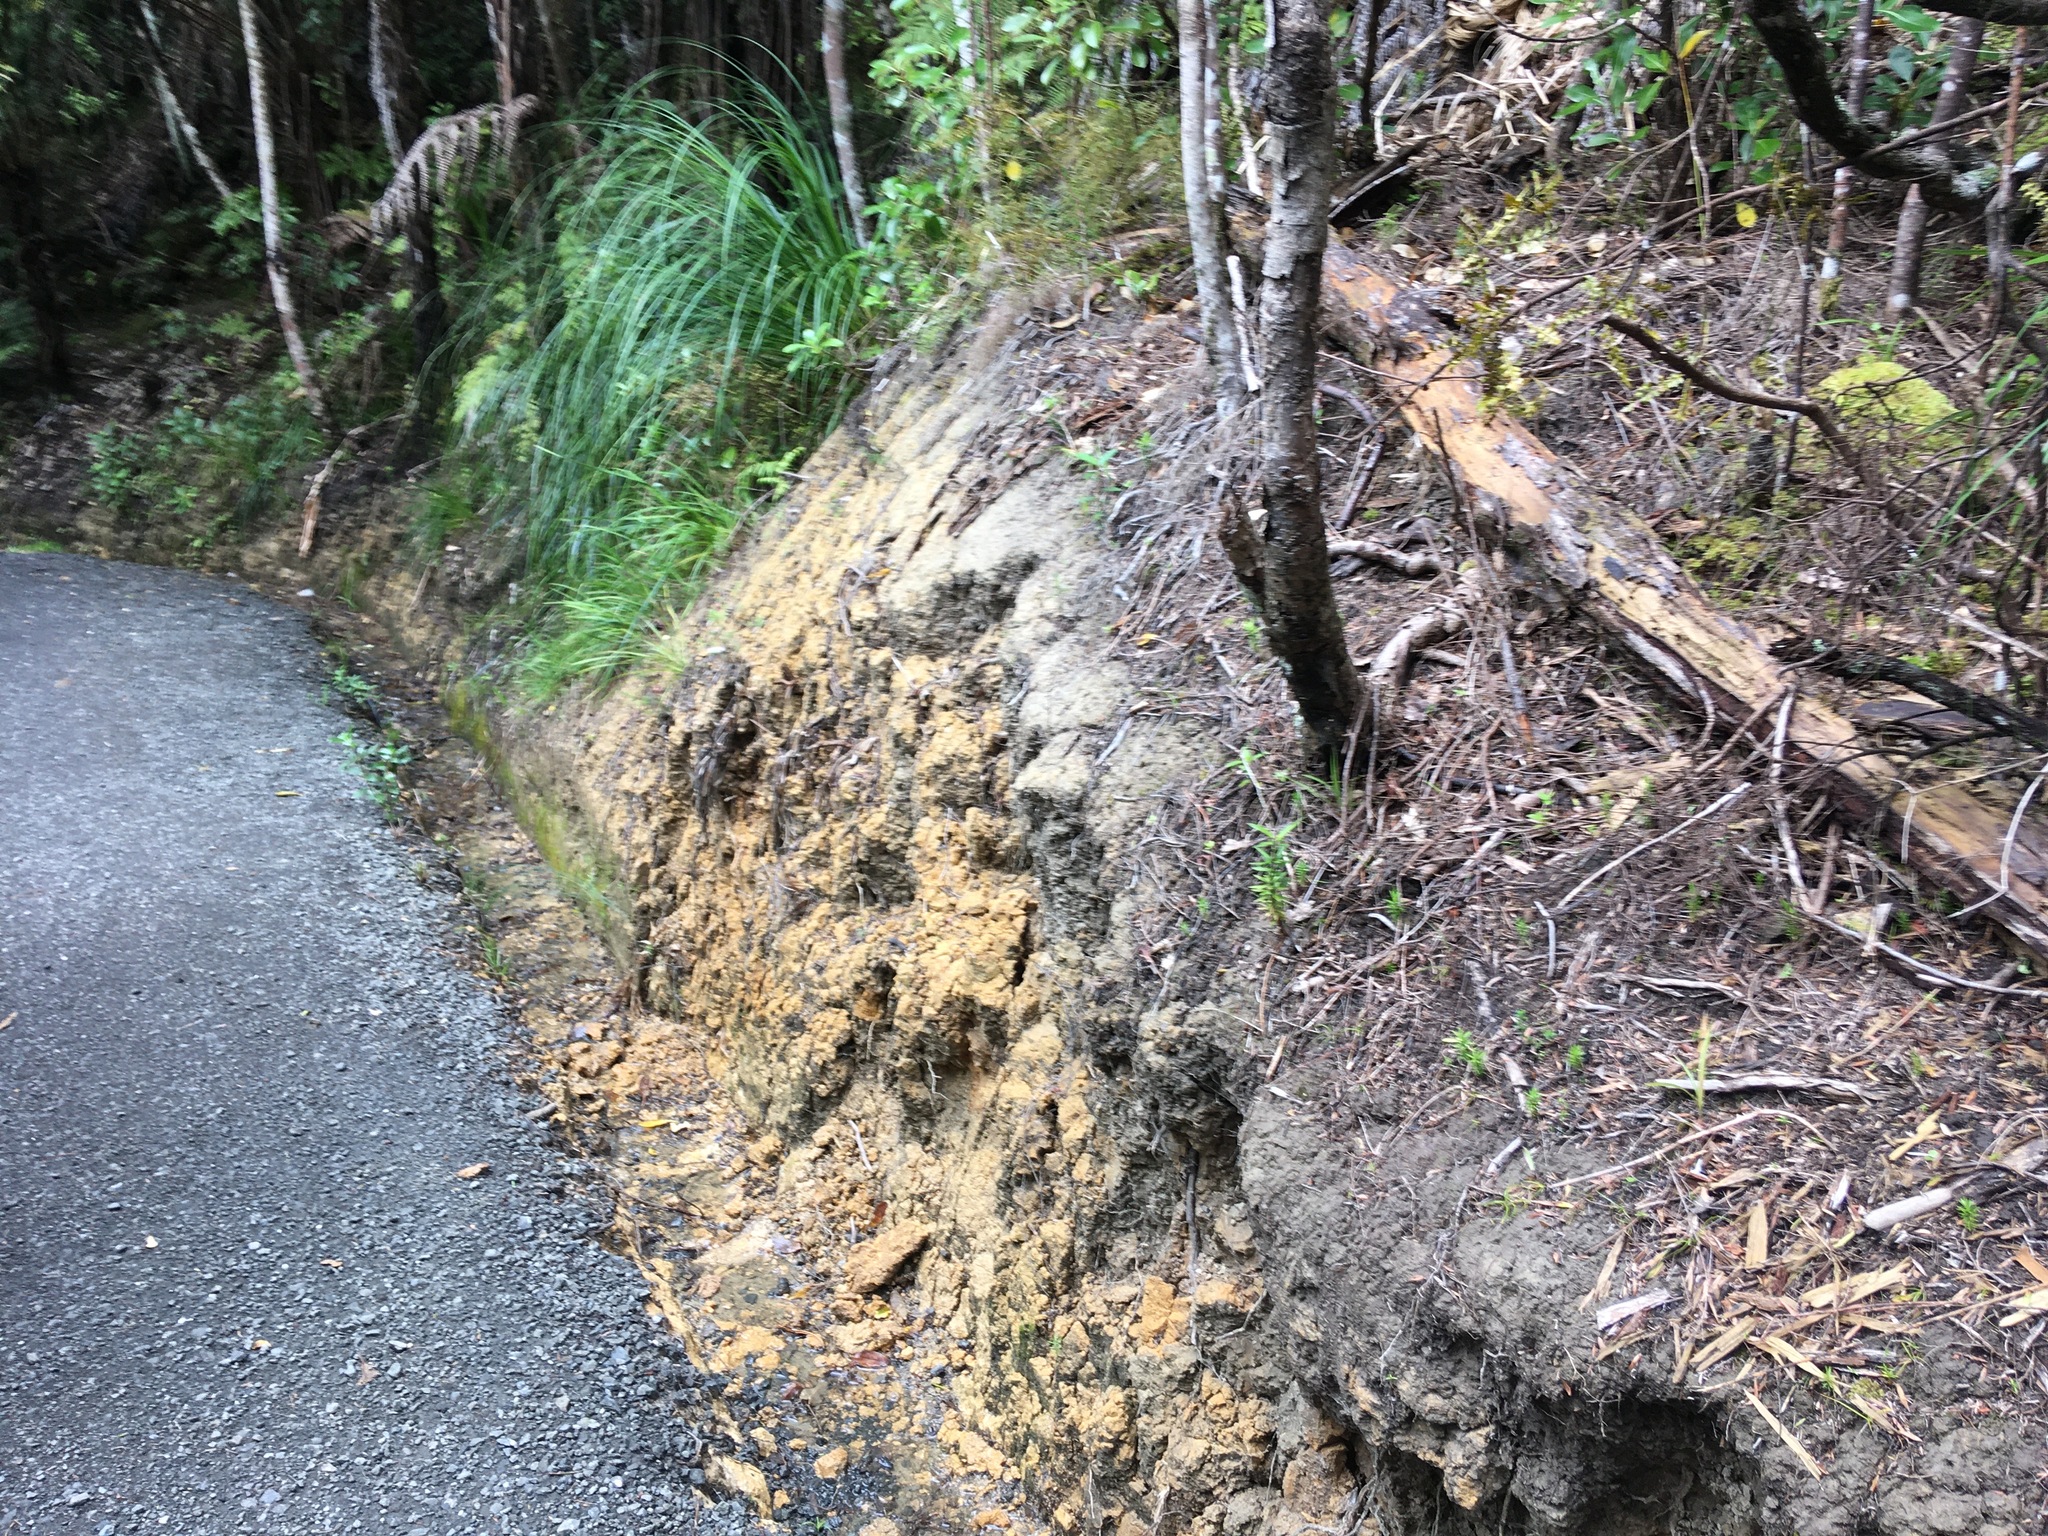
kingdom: Plantae
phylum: Tracheophyta
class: Liliopsida
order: Poales
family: Cyperaceae
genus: Gahnia
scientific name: Gahnia xanthocarpa
